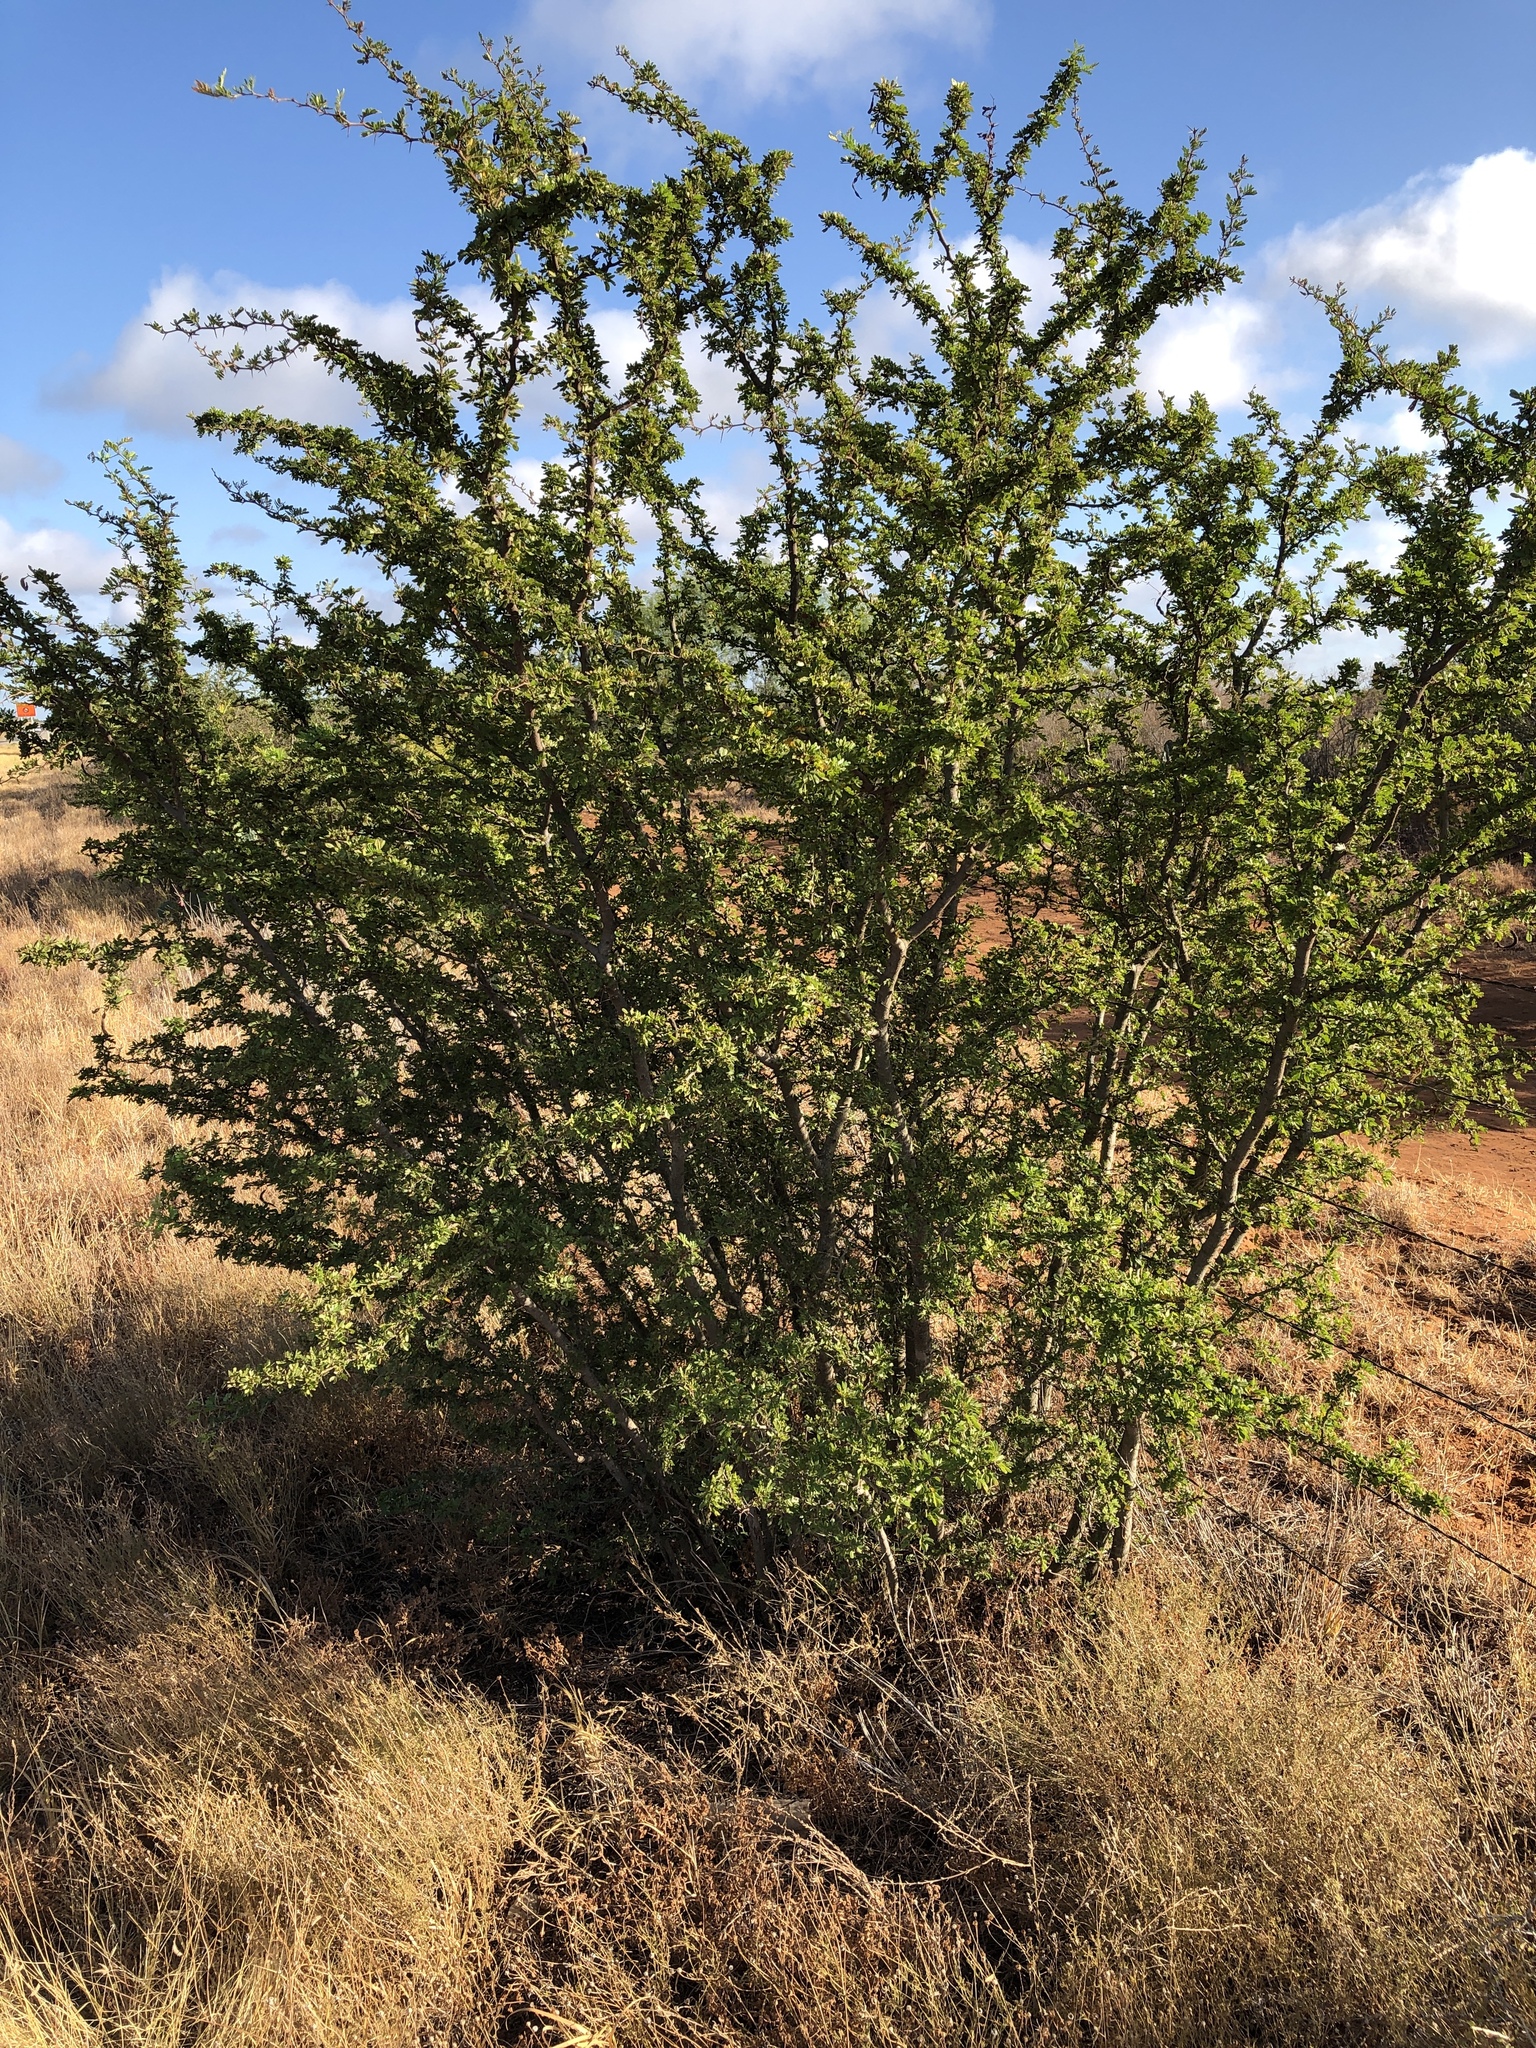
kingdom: Plantae
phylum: Tracheophyta
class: Magnoliopsida
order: Fabales
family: Fabaceae
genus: Vachellia
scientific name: Vachellia rigidula
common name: Blackbrush
